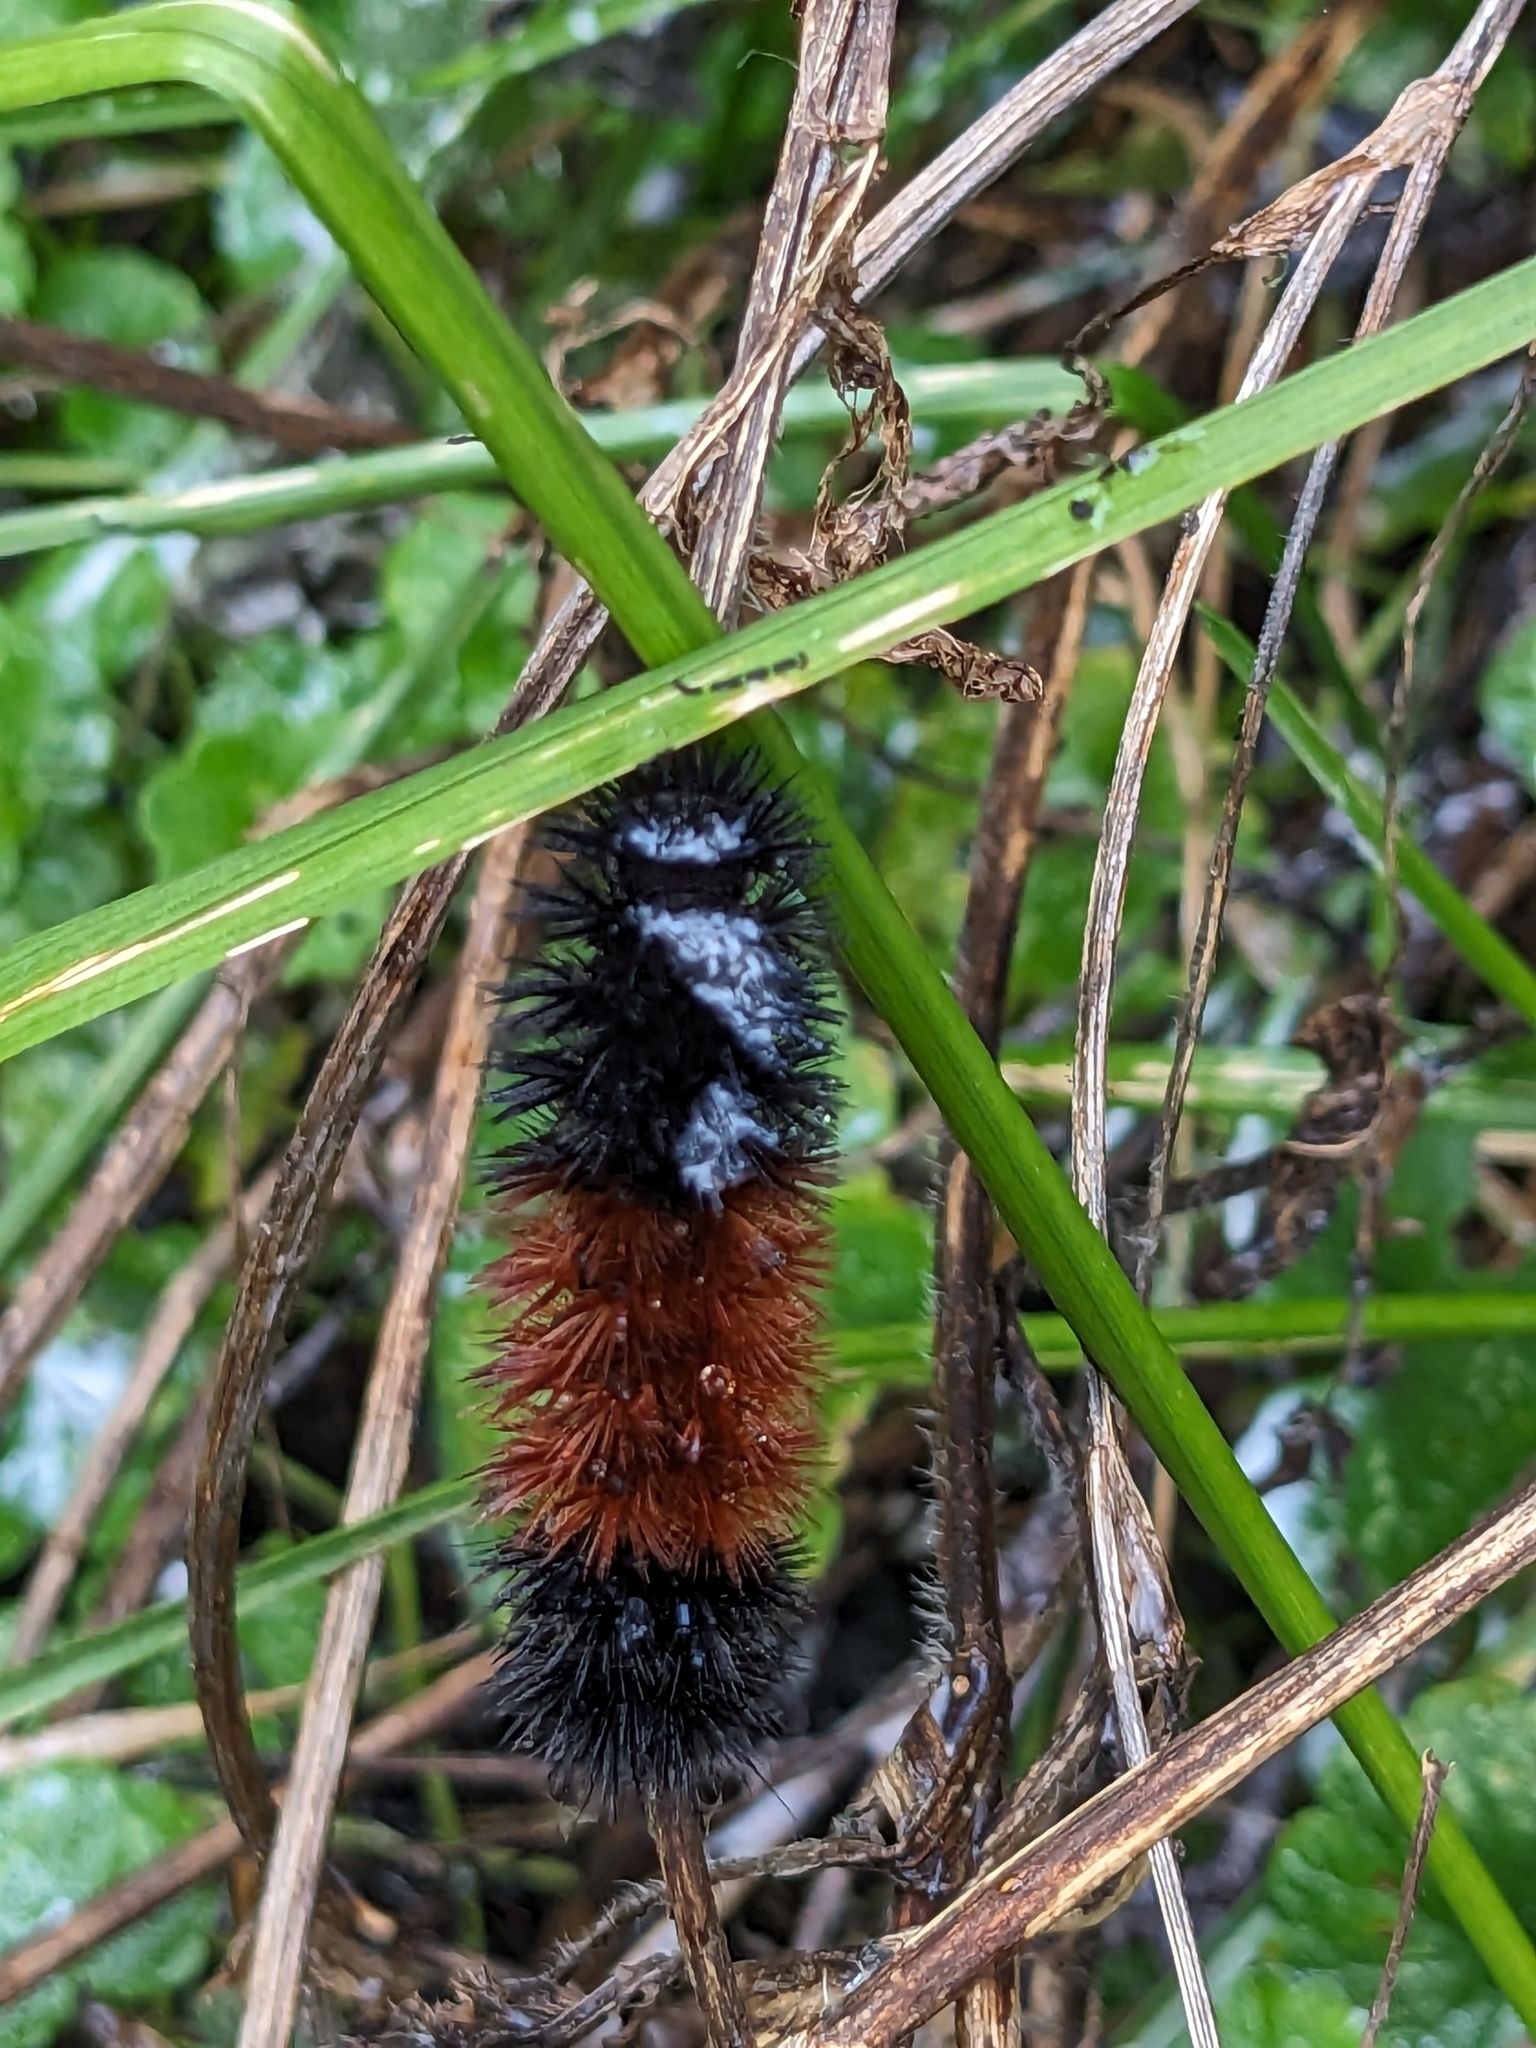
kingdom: Animalia
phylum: Arthropoda
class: Insecta
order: Lepidoptera
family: Erebidae
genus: Pyrrharctia
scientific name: Pyrrharctia isabella
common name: Isabella tiger moth
